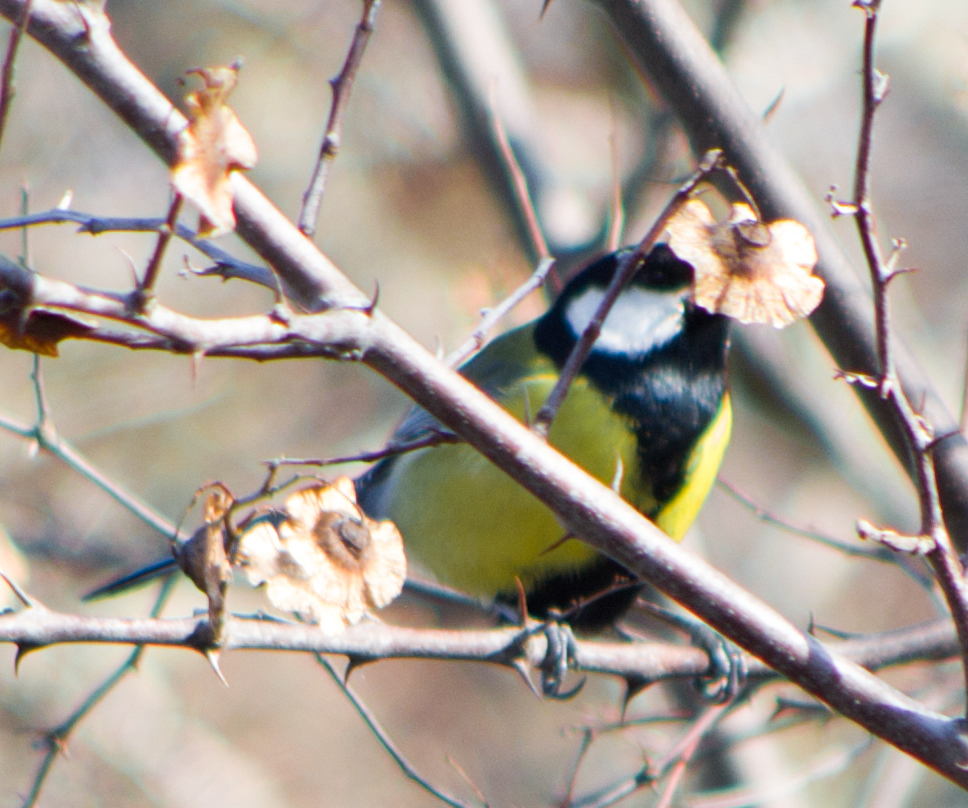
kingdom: Animalia
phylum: Chordata
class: Aves
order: Passeriformes
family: Paridae
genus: Parus
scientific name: Parus major
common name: Great tit
